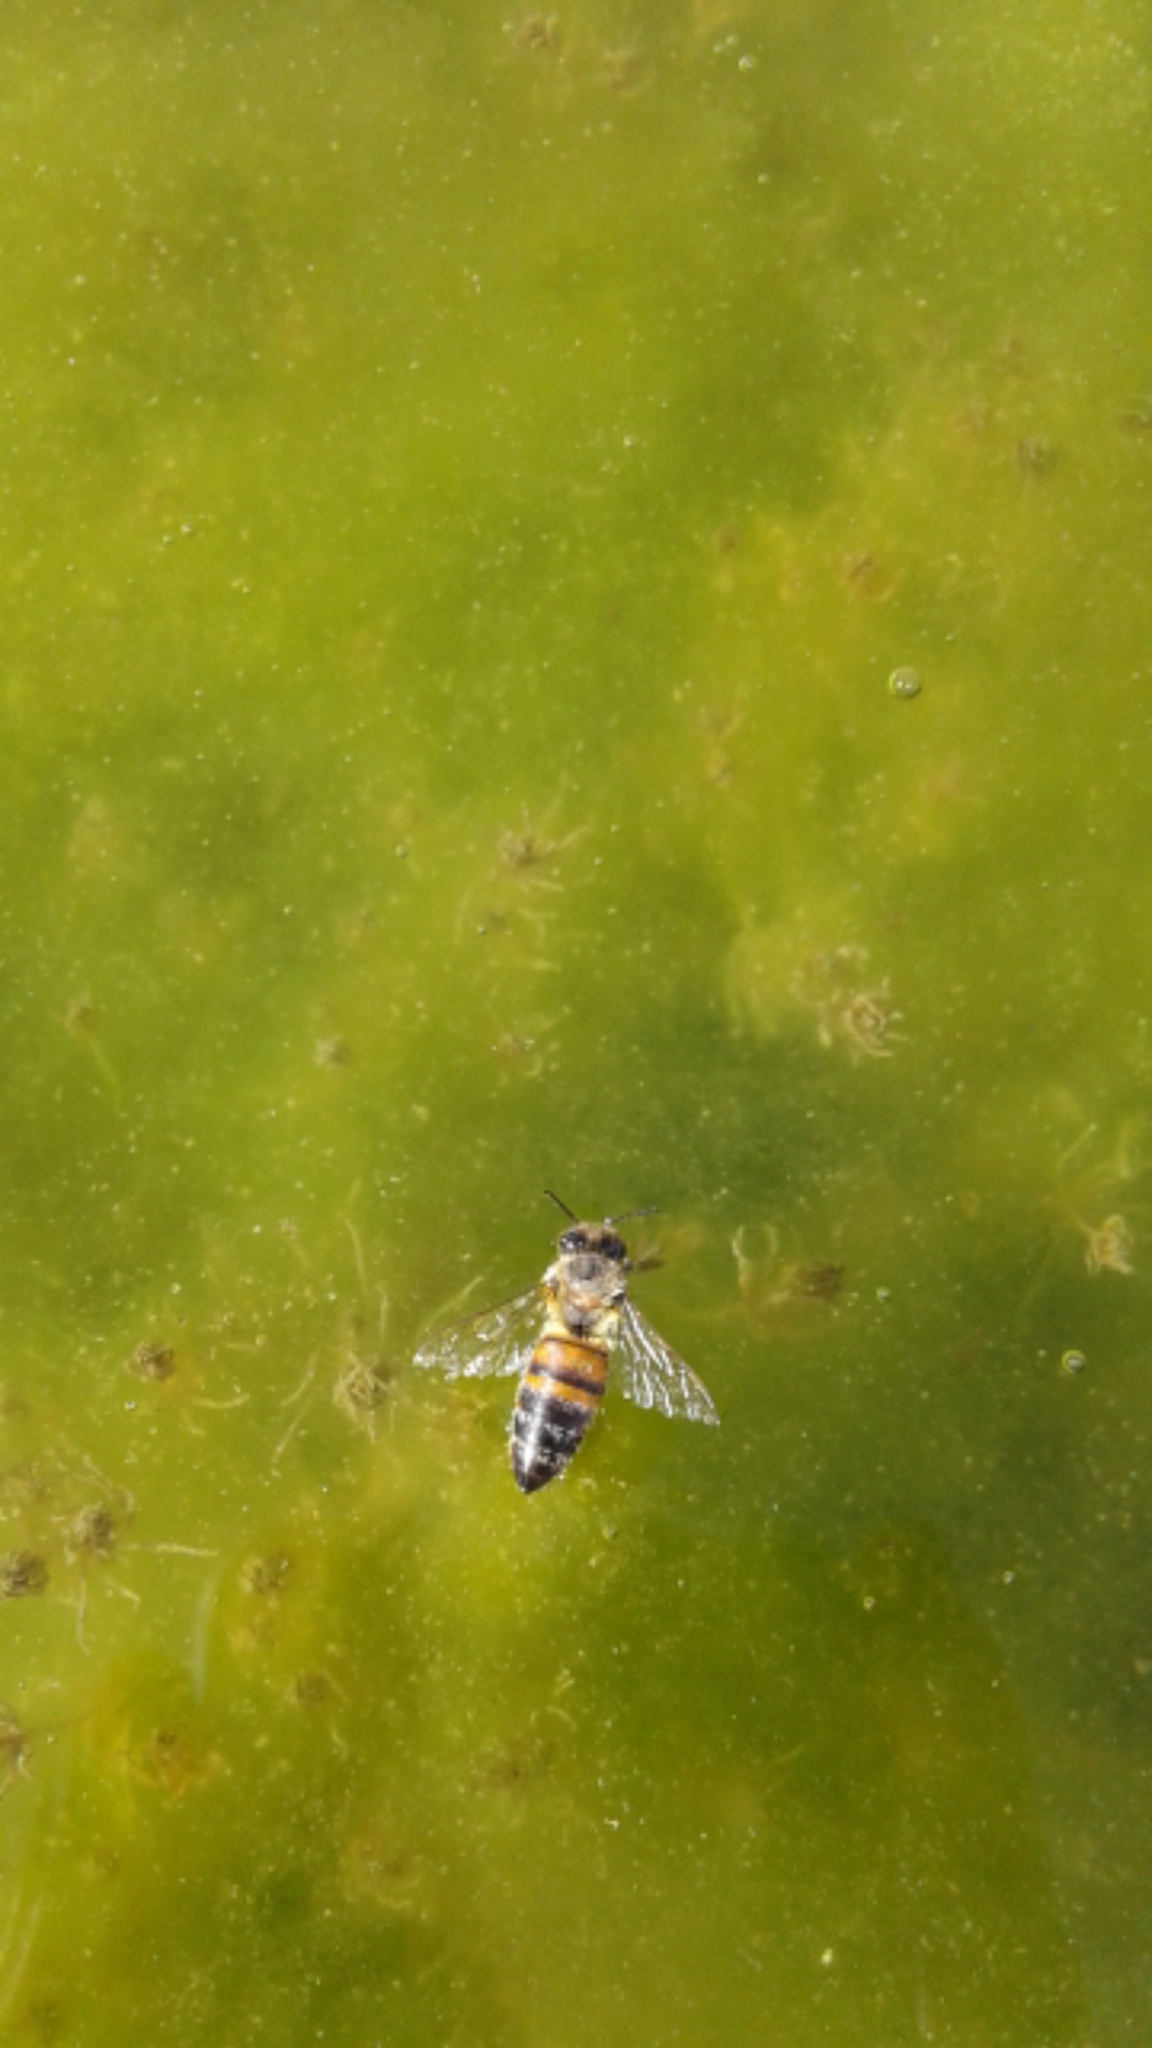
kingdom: Animalia
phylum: Arthropoda
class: Insecta
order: Hymenoptera
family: Apidae
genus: Apis
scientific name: Apis mellifera
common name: Honey bee
